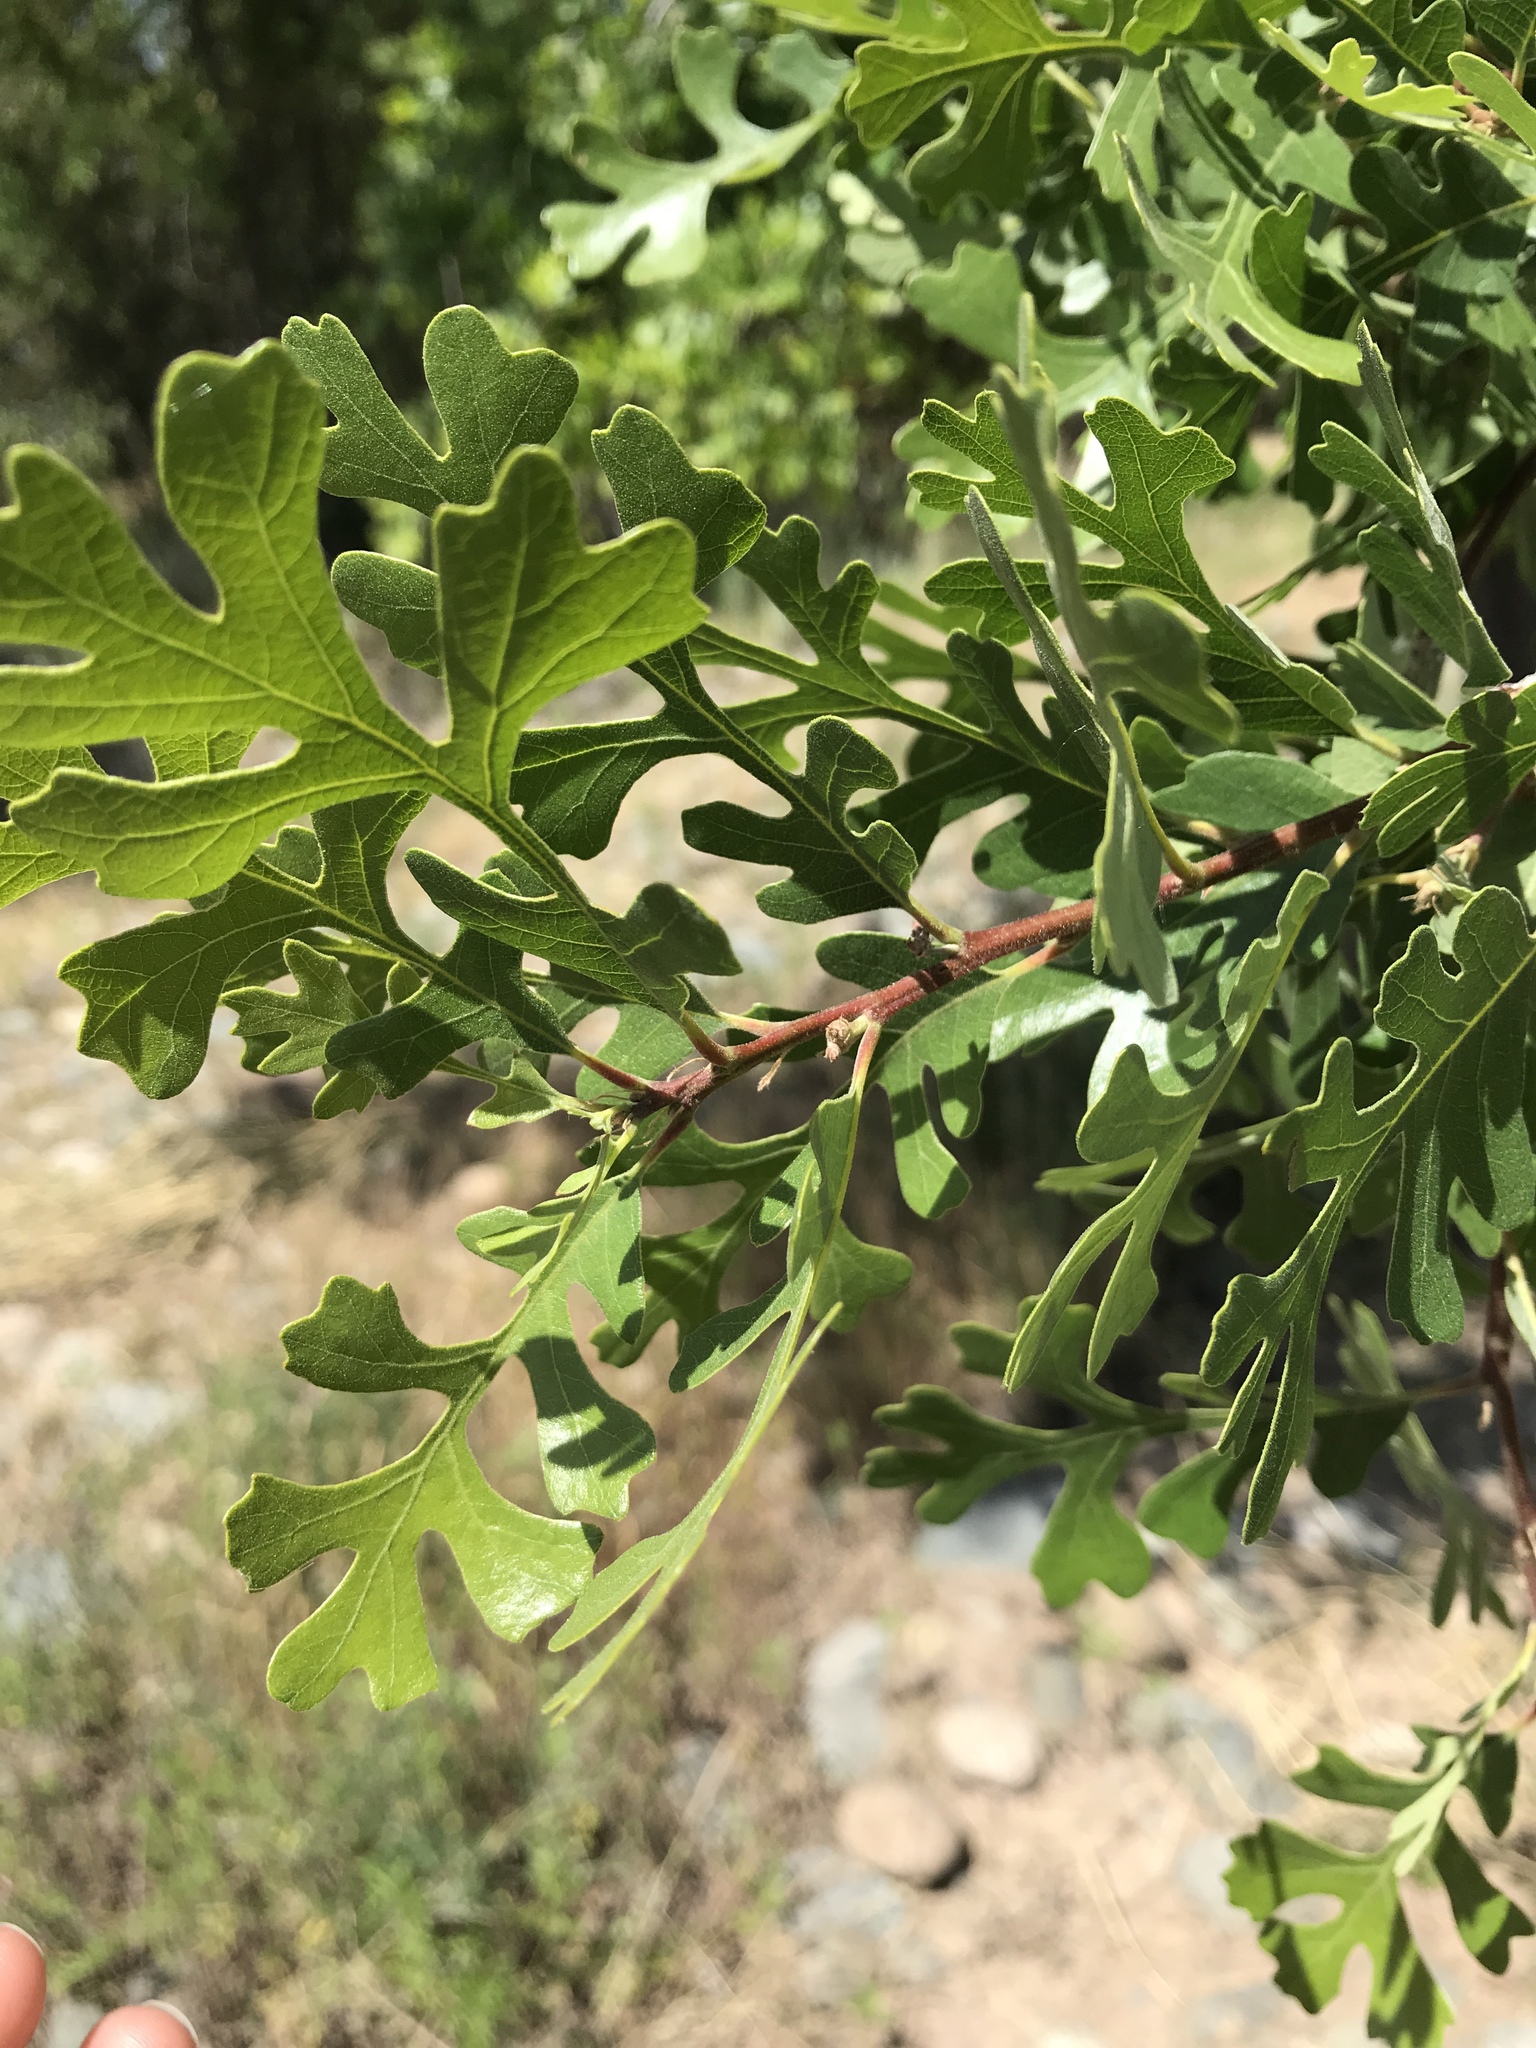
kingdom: Plantae
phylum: Tracheophyta
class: Magnoliopsida
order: Fagales
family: Fagaceae
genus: Quercus
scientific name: Quercus lobata
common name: Valley oak
